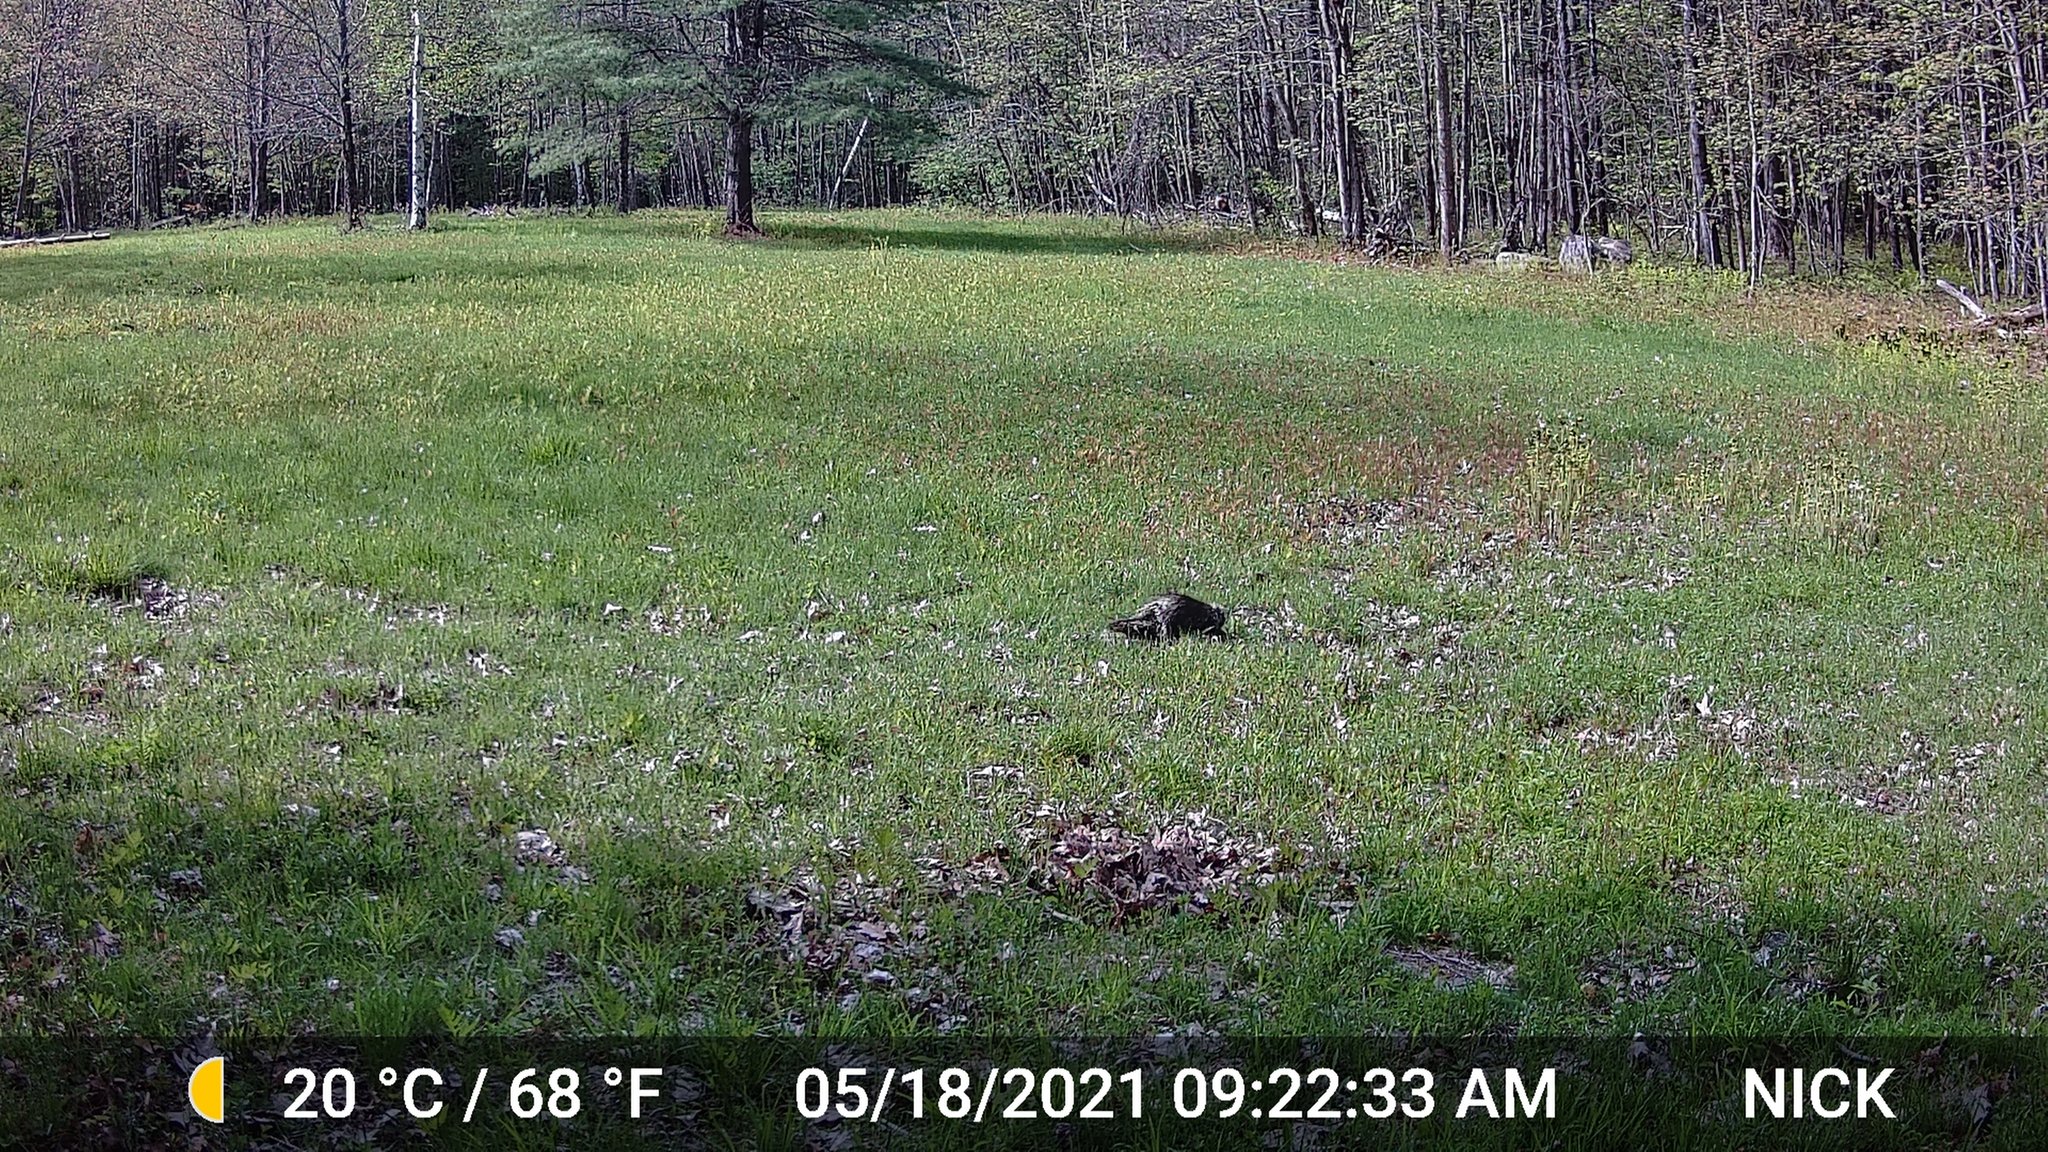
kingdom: Animalia
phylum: Chordata
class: Mammalia
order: Rodentia
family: Erethizontidae
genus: Erethizon
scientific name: Erethizon dorsatus
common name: North american porcupine
